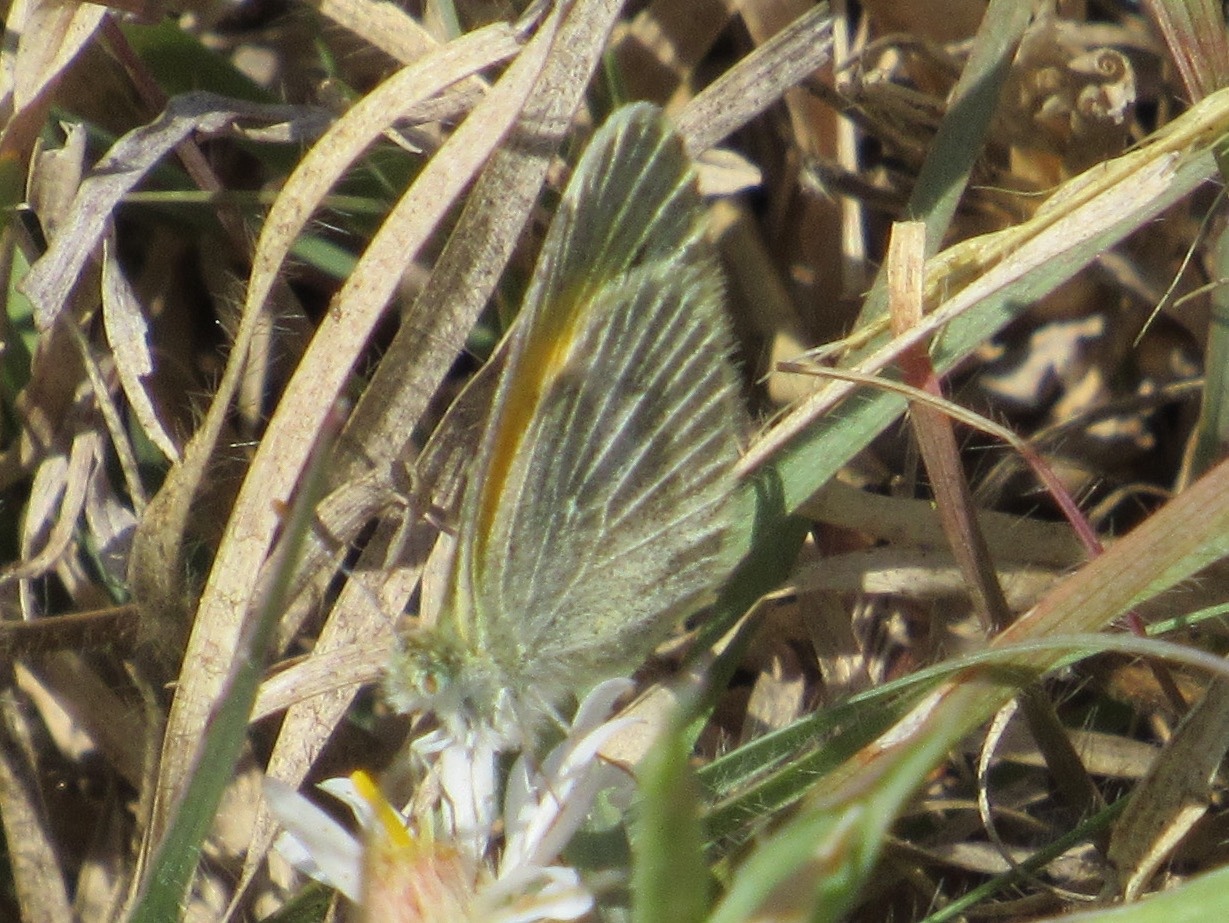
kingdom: Animalia
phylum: Arthropoda
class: Insecta
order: Lepidoptera
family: Pieridae
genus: Nathalis
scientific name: Nathalis iole
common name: Dainty sulphur
